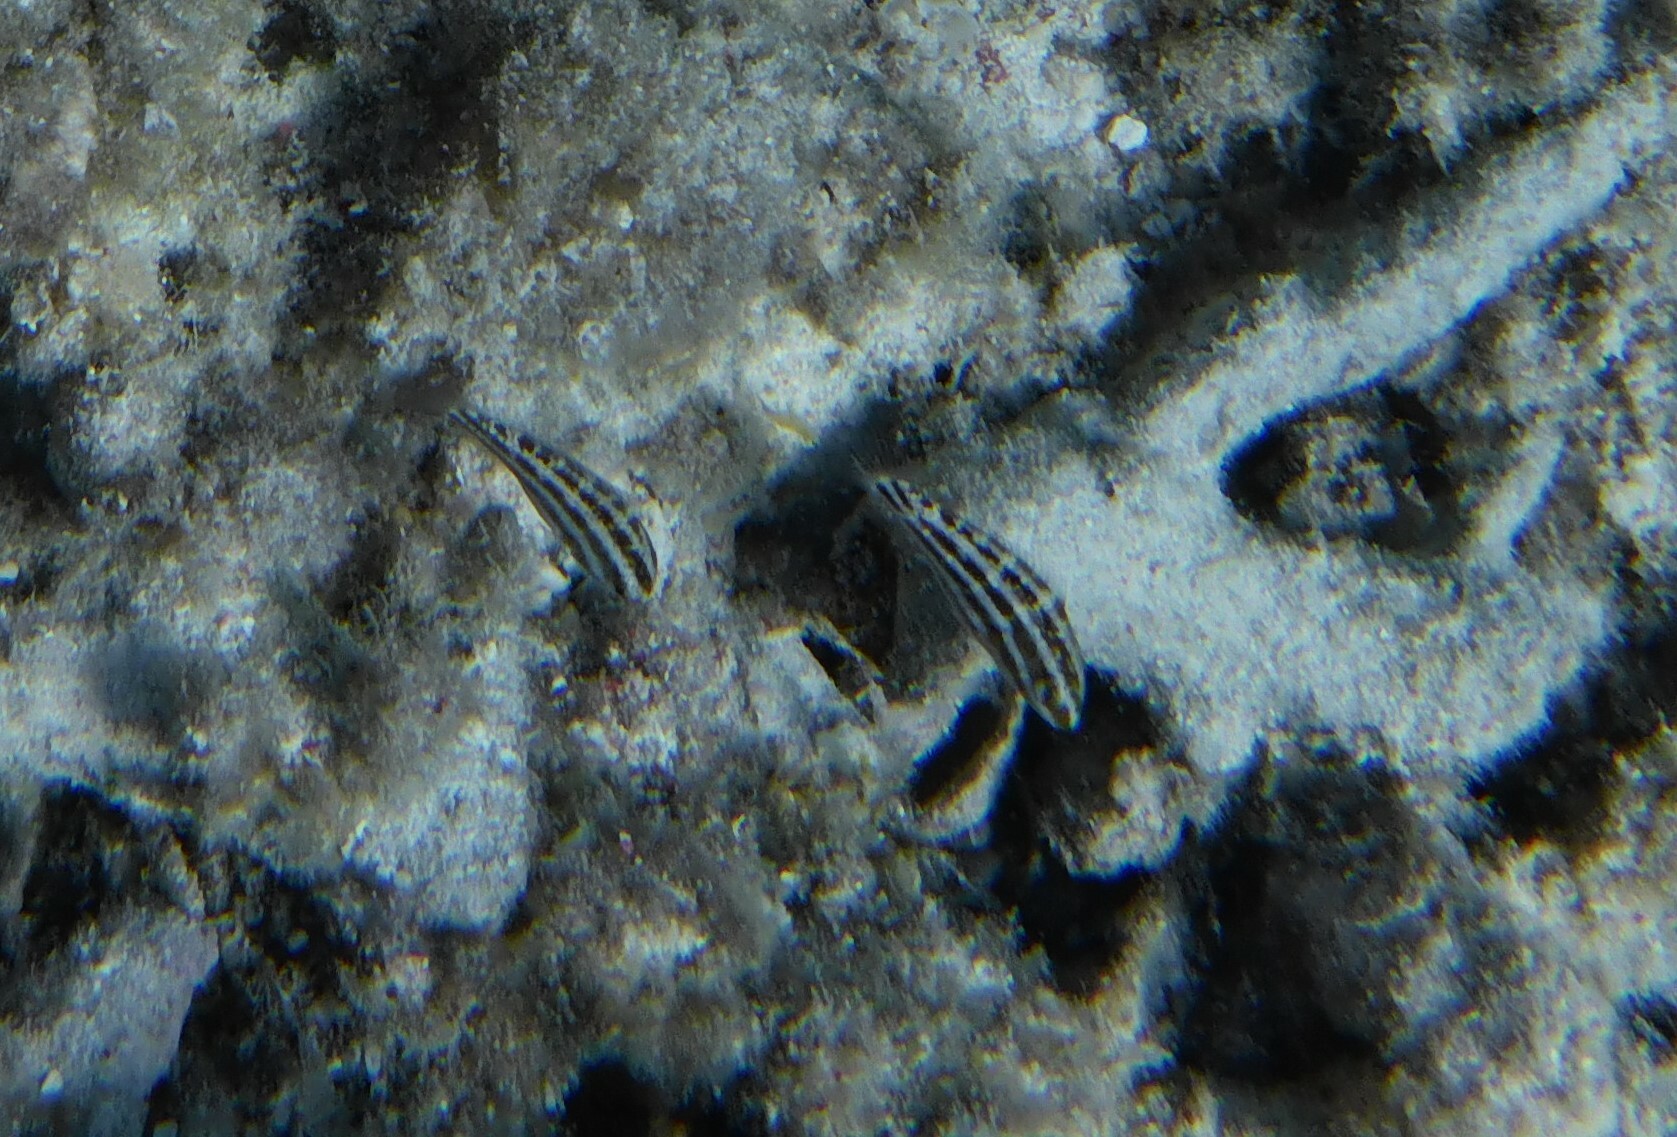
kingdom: Animalia
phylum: Chordata
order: Perciformes
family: Scaridae
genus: Chlorurus
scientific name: Chlorurus sordidus
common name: Bullethead parrotfish
